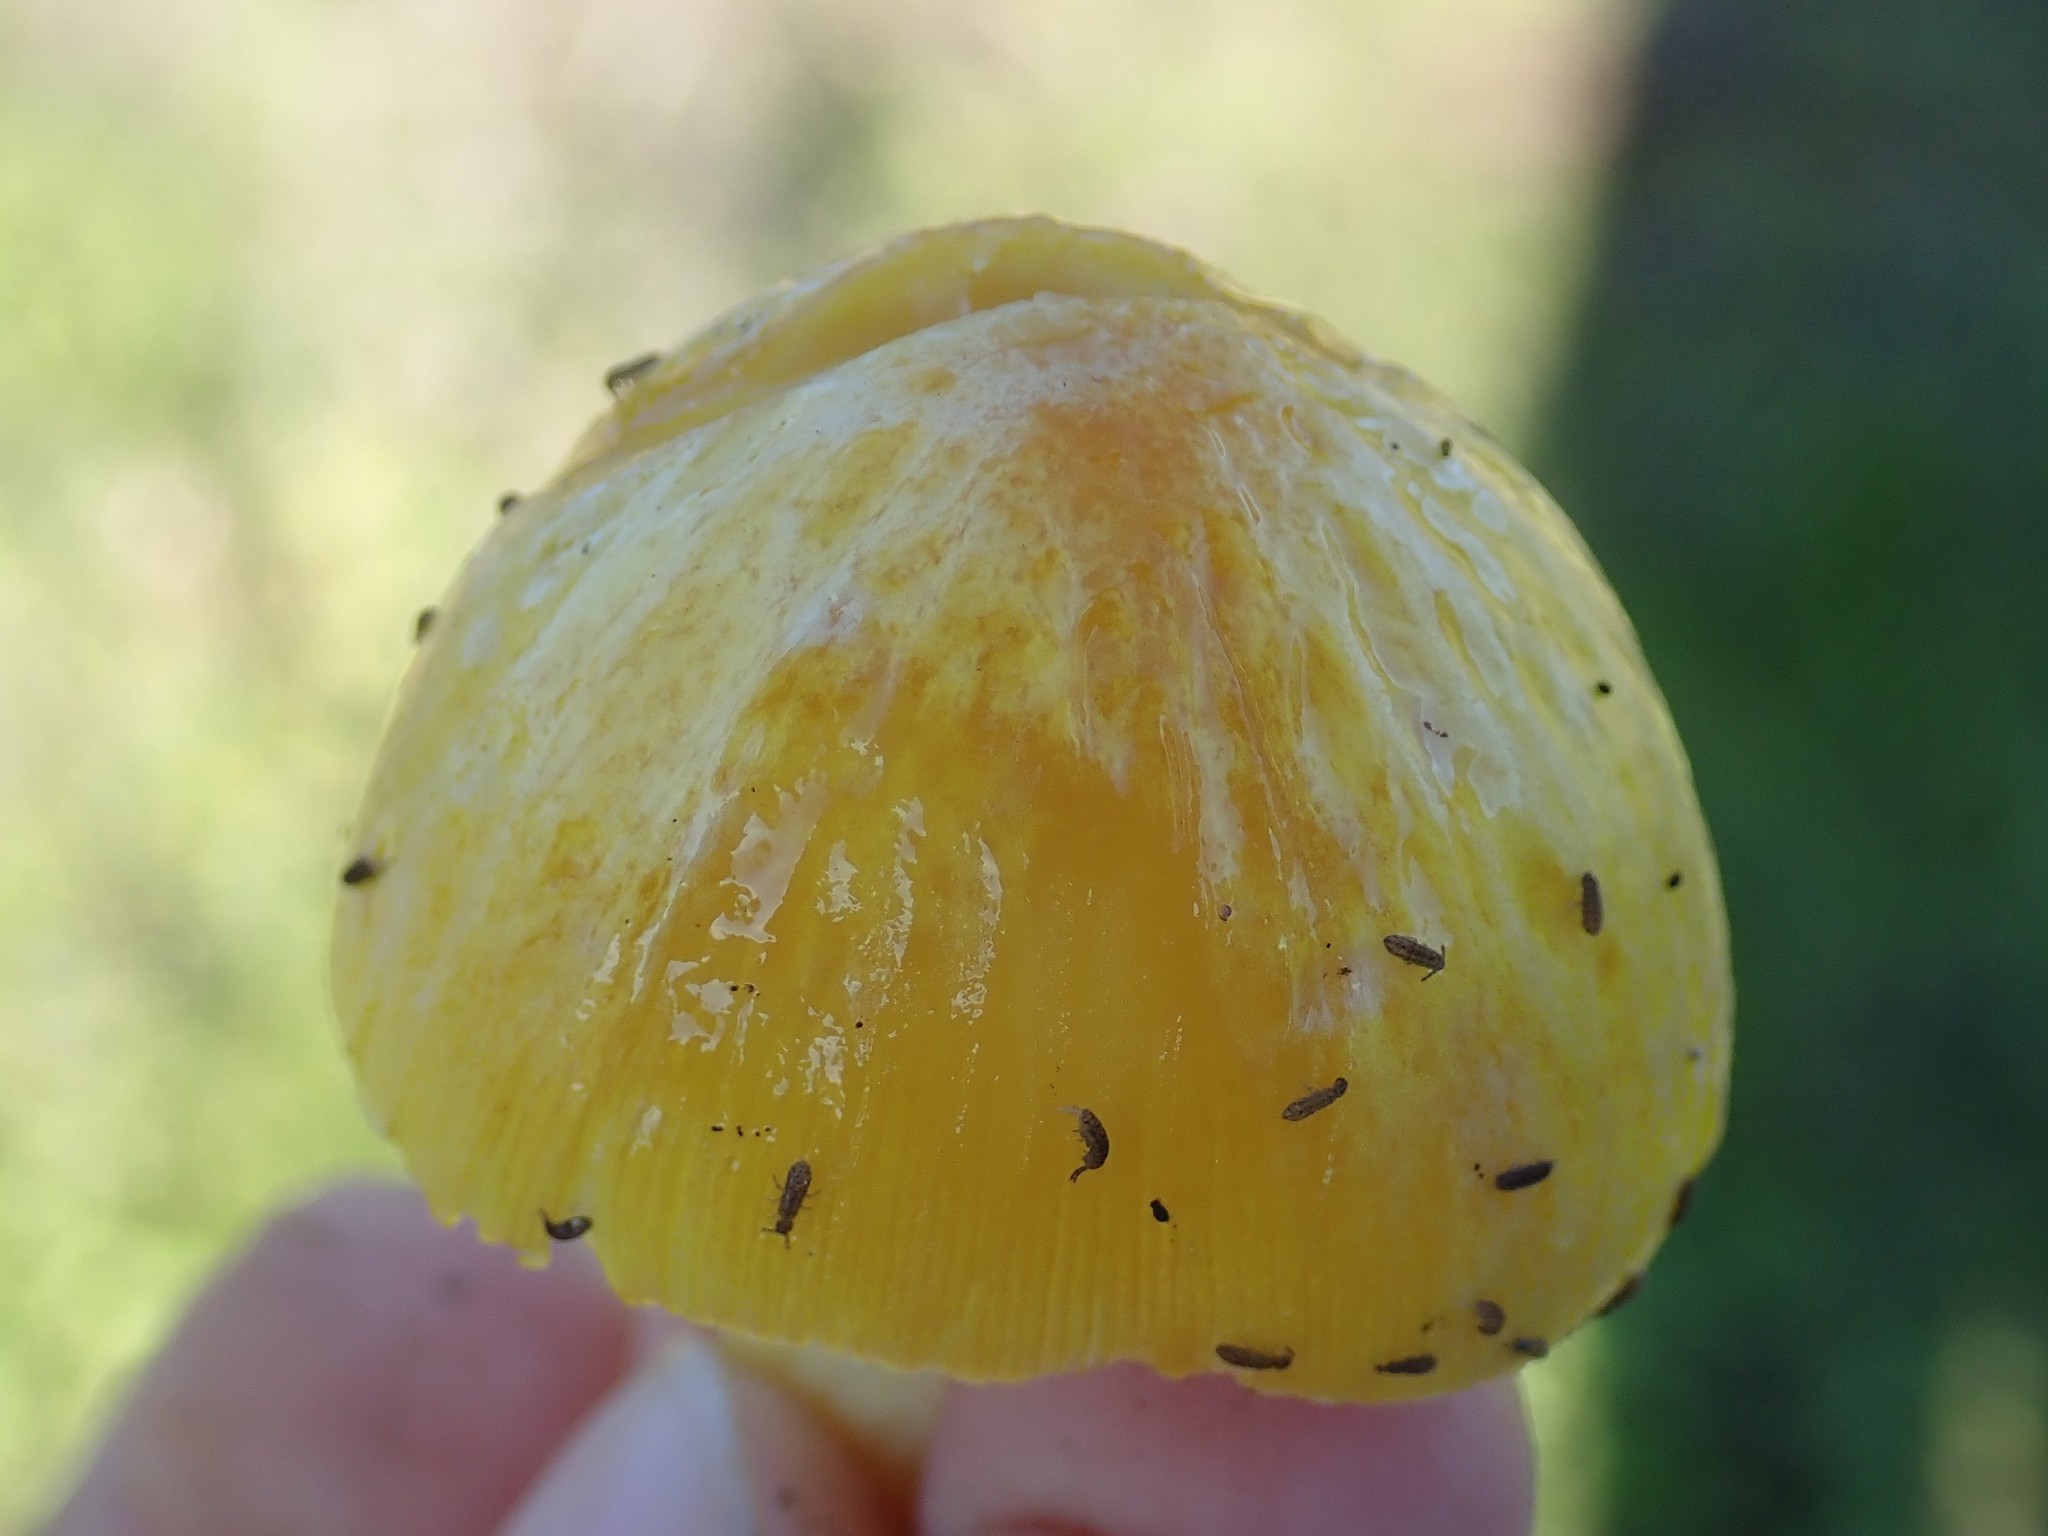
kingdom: Fungi
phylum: Basidiomycota
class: Agaricomycetes
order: Agaricales
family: Bolbitiaceae
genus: Bolbitius
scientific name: Bolbitius titubans
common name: Yellow fieldcap
